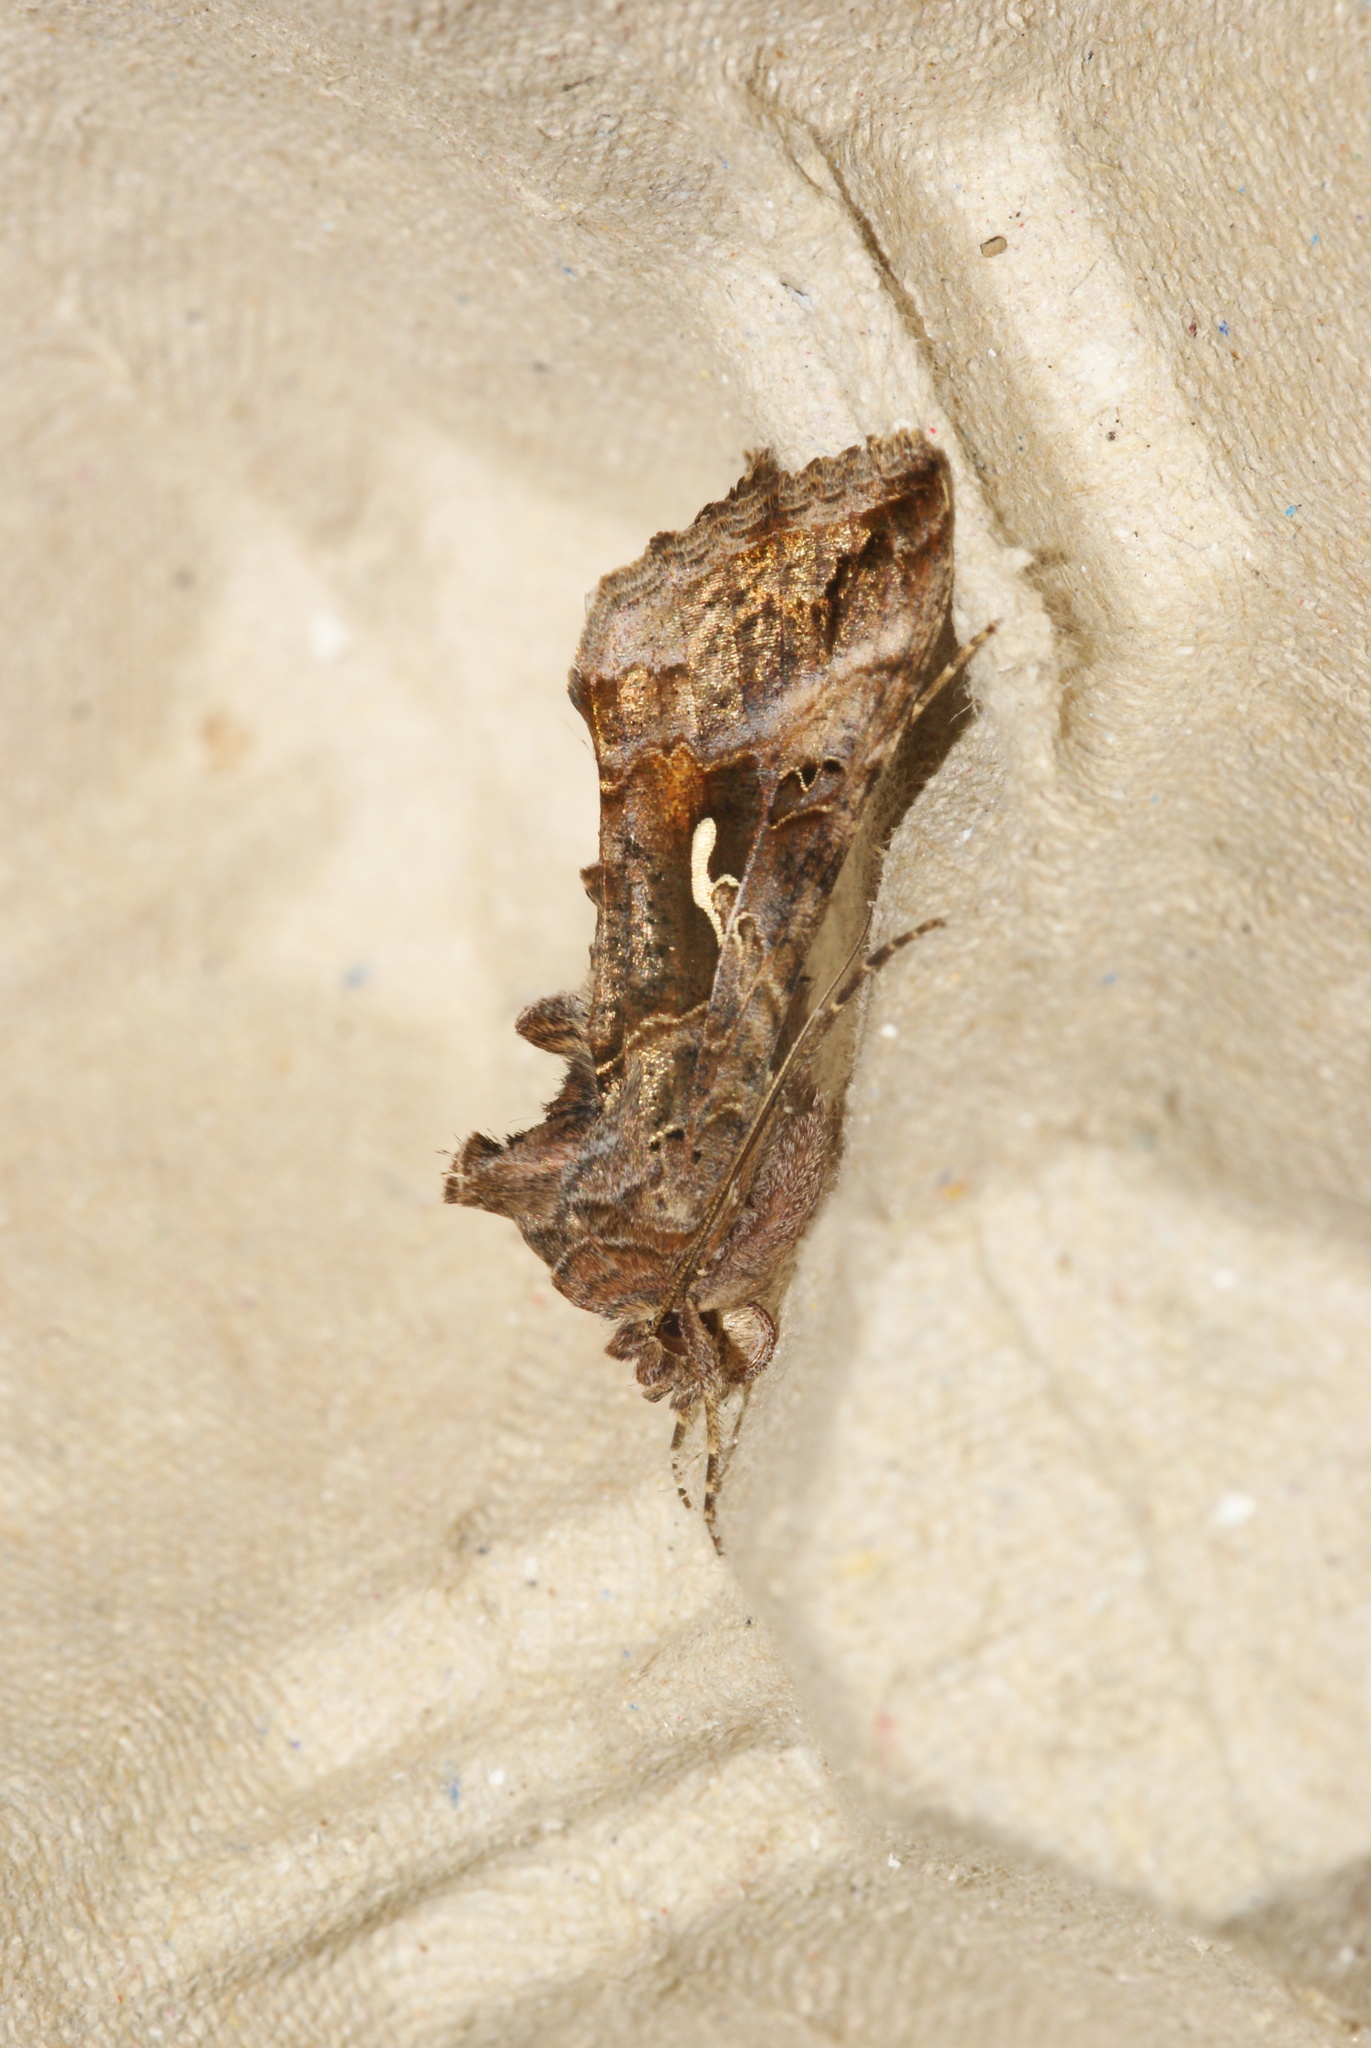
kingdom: Animalia
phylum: Arthropoda
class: Insecta
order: Lepidoptera
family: Noctuidae
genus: Autographa
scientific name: Autographa gamma
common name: Silver y
